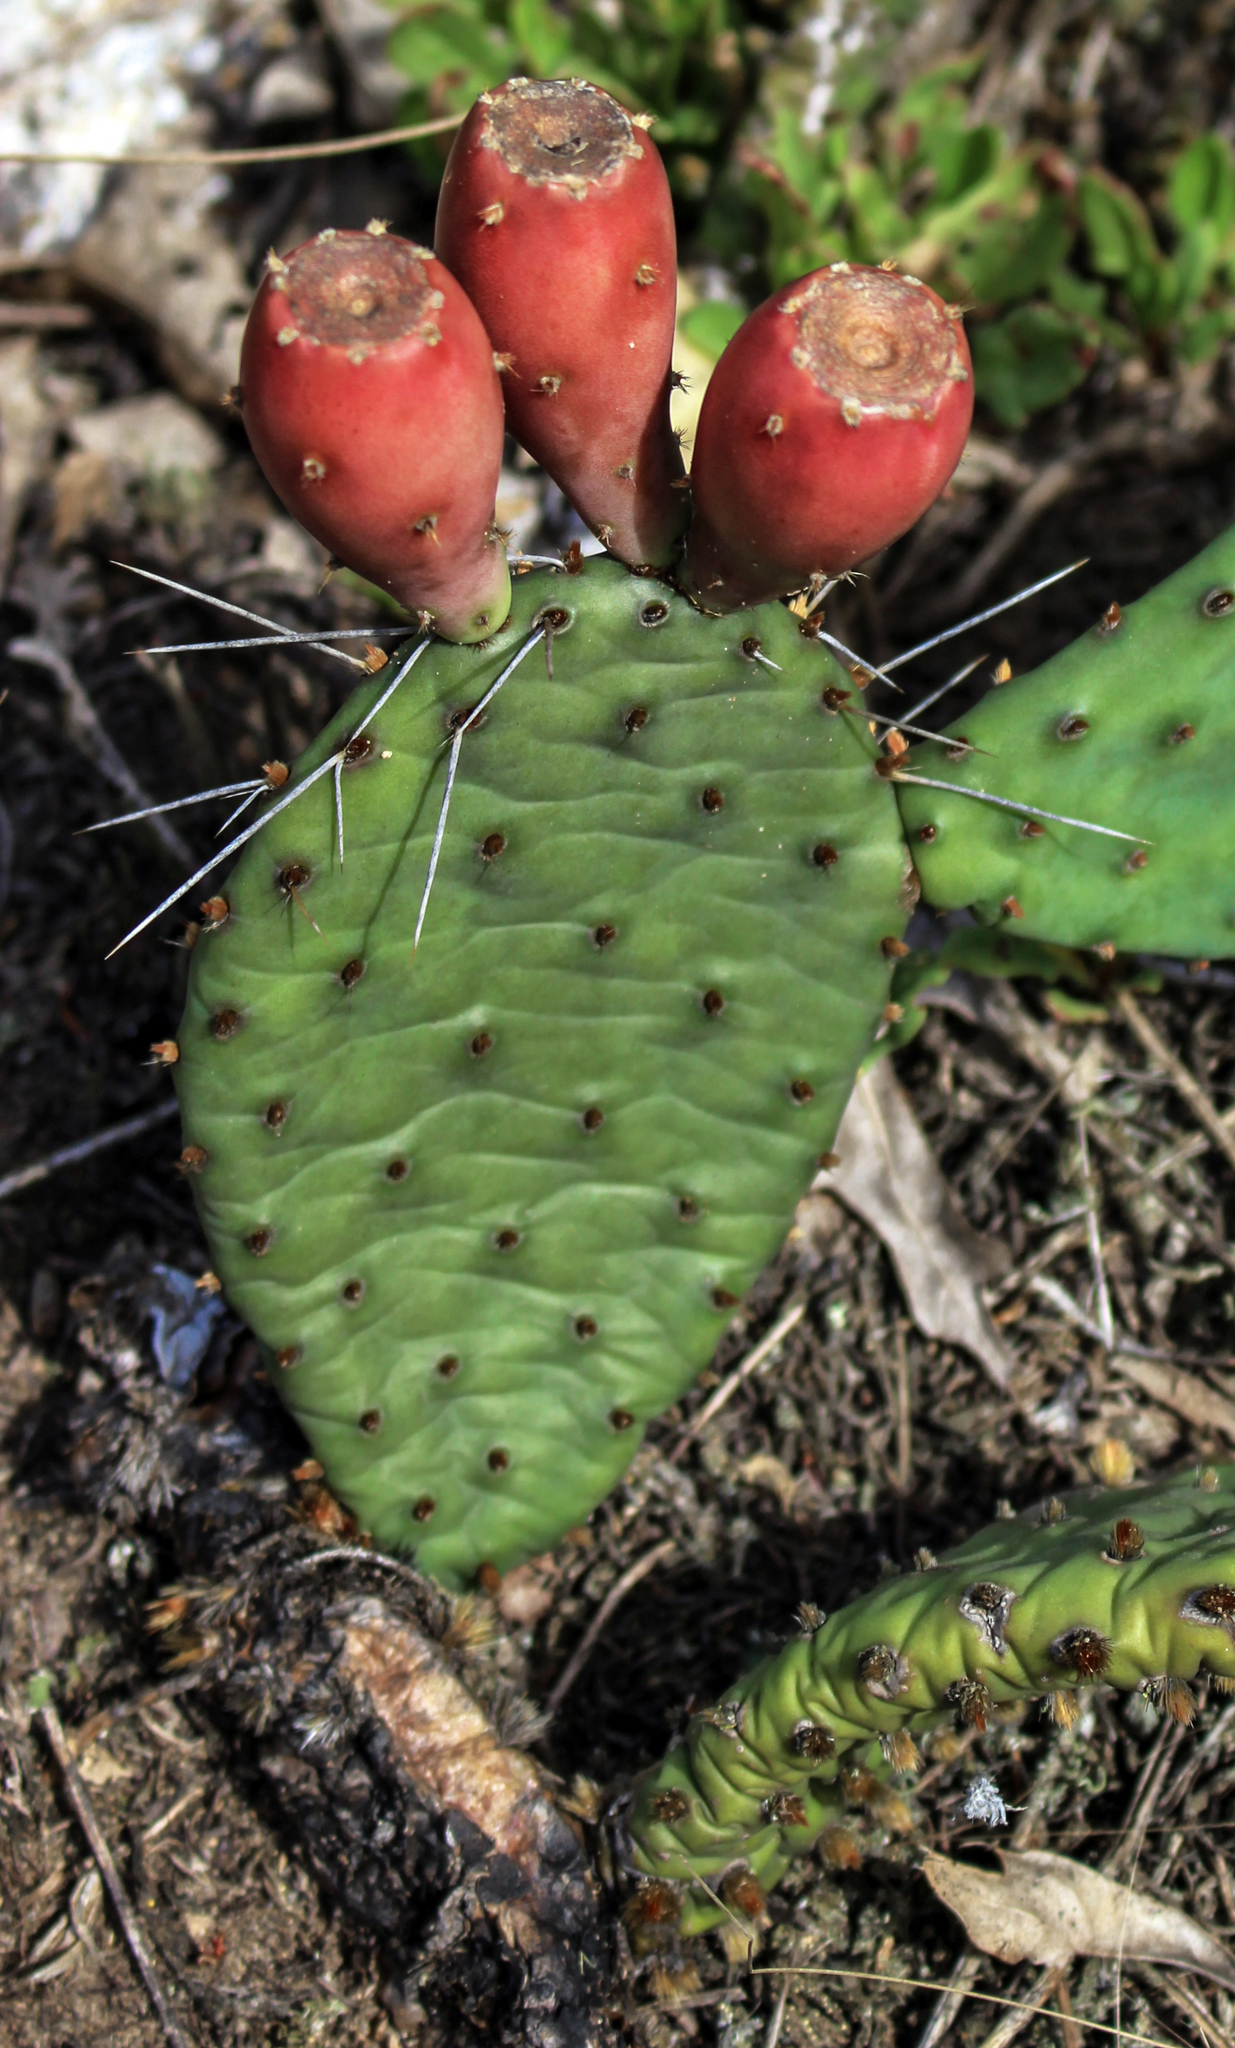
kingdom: Plantae
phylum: Tracheophyta
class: Magnoliopsida
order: Caryophyllales
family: Cactaceae
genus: Opuntia
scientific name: Opuntia humifusa
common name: Eastern prickly-pear
